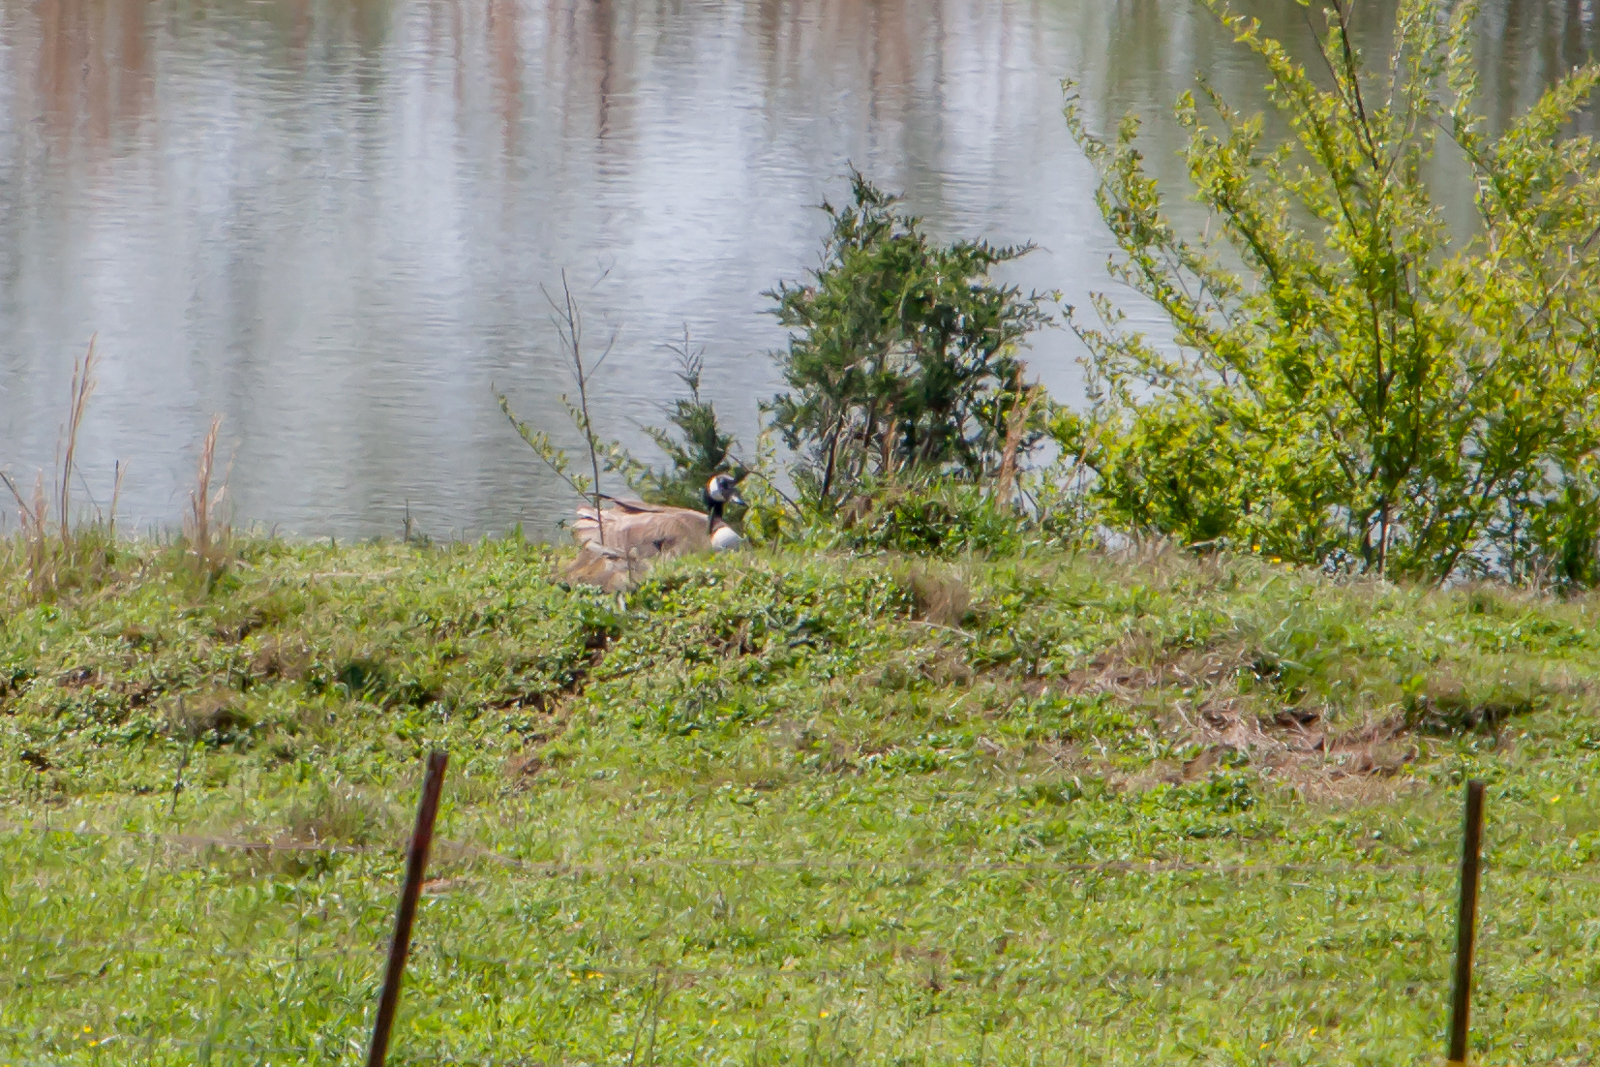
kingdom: Animalia
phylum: Chordata
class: Aves
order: Anseriformes
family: Anatidae
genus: Branta
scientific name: Branta canadensis
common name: Canada goose
